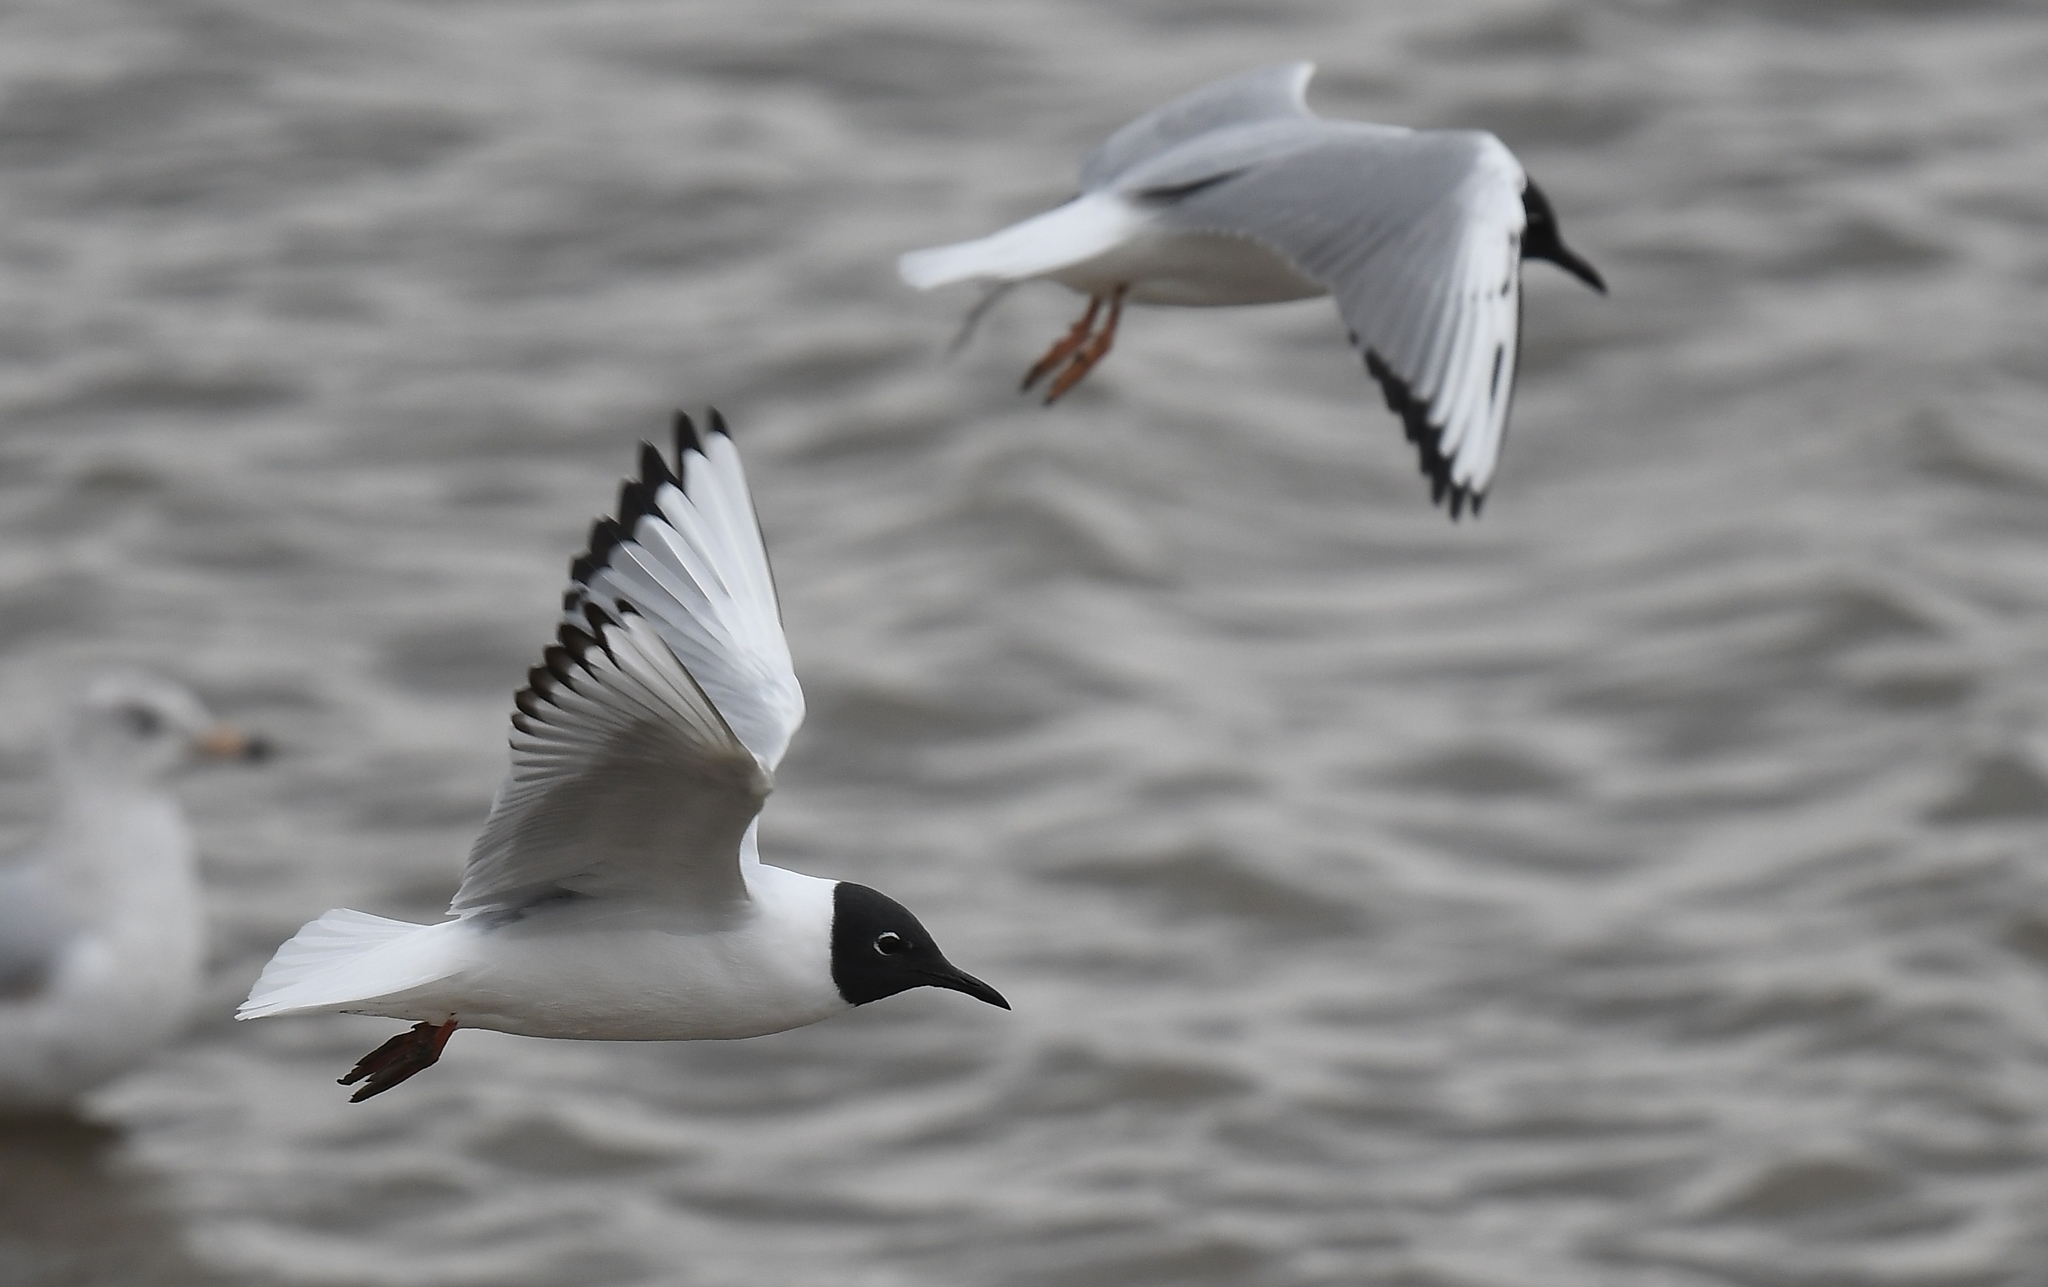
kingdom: Animalia
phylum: Chordata
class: Aves
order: Charadriiformes
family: Laridae
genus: Chroicocephalus
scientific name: Chroicocephalus philadelphia
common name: Bonaparte's gull
